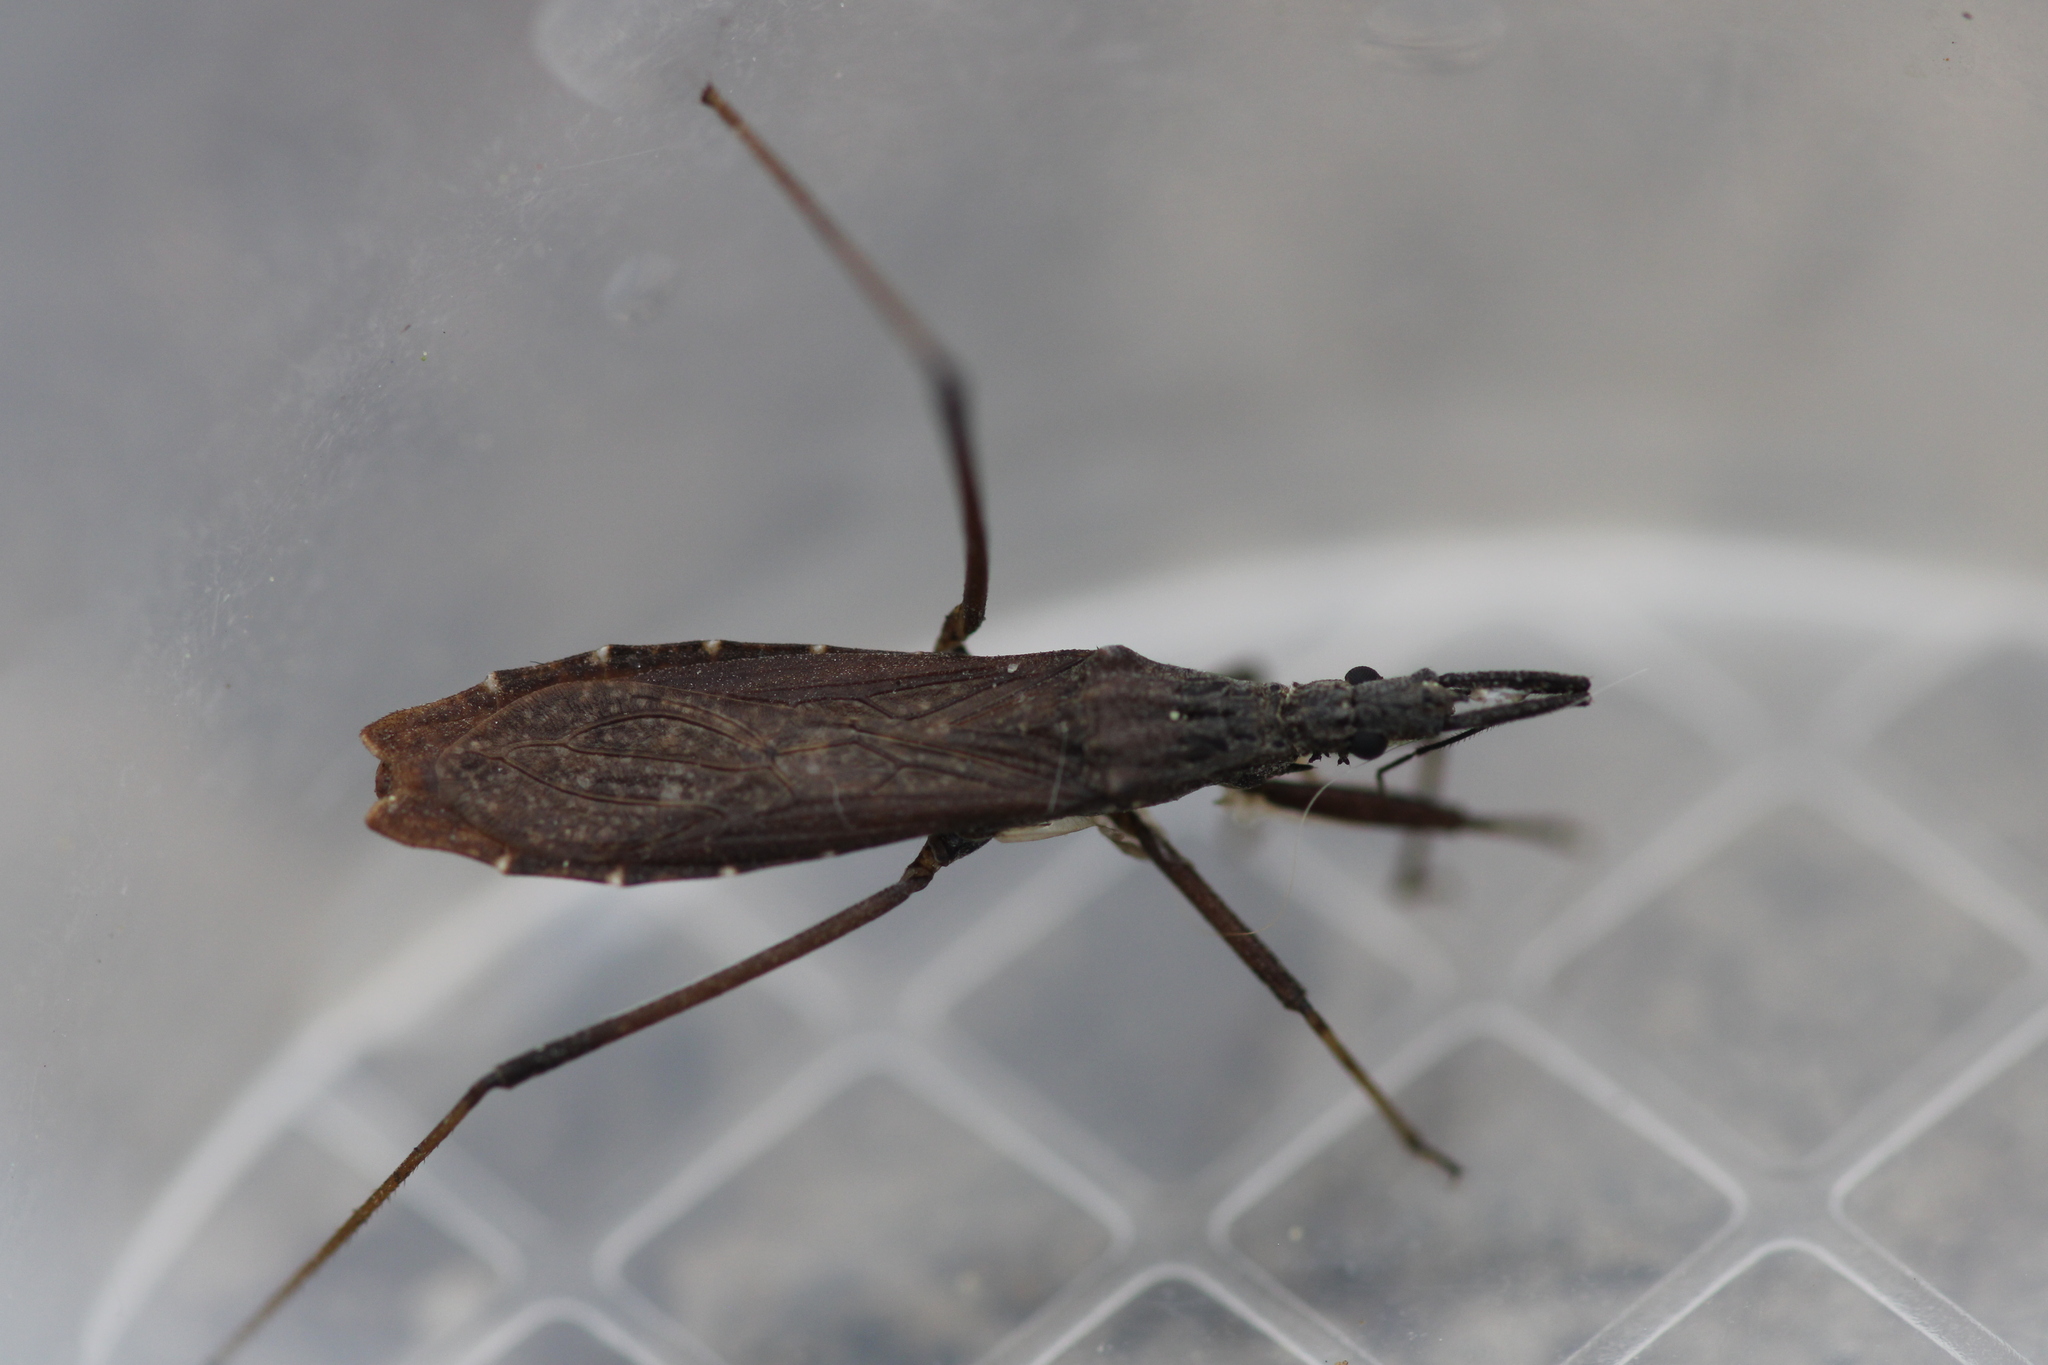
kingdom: Animalia
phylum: Arthropoda
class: Insecta
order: Hemiptera
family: Reduviidae
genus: Pygolampis
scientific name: Pygolampis bidentata
